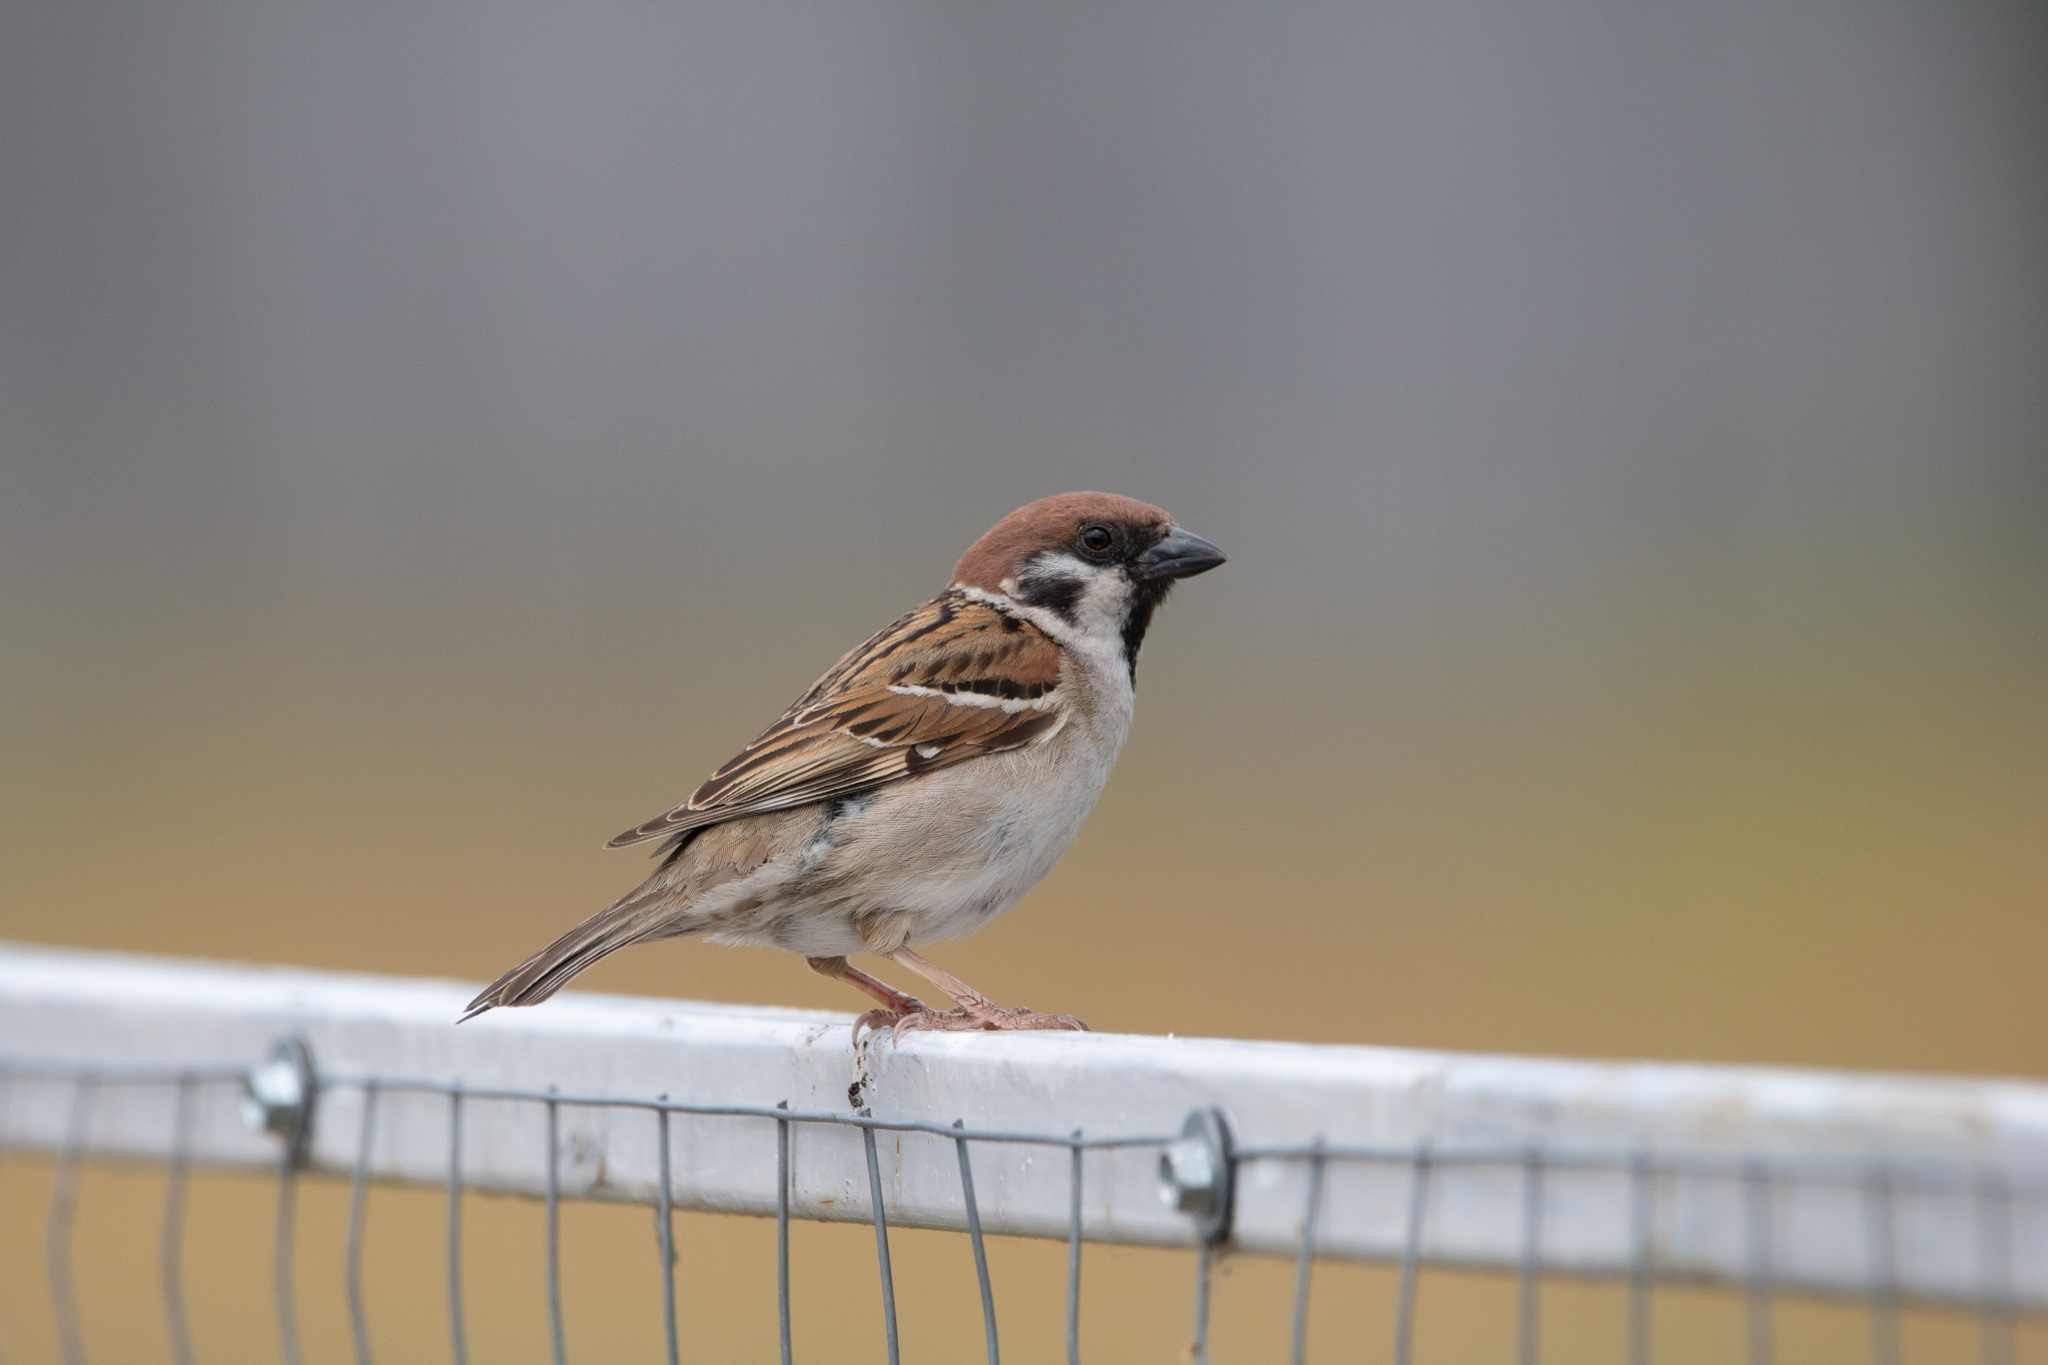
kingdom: Animalia
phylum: Chordata
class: Aves
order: Passeriformes
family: Passeridae
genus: Passer
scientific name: Passer montanus
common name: Eurasian tree sparrow
